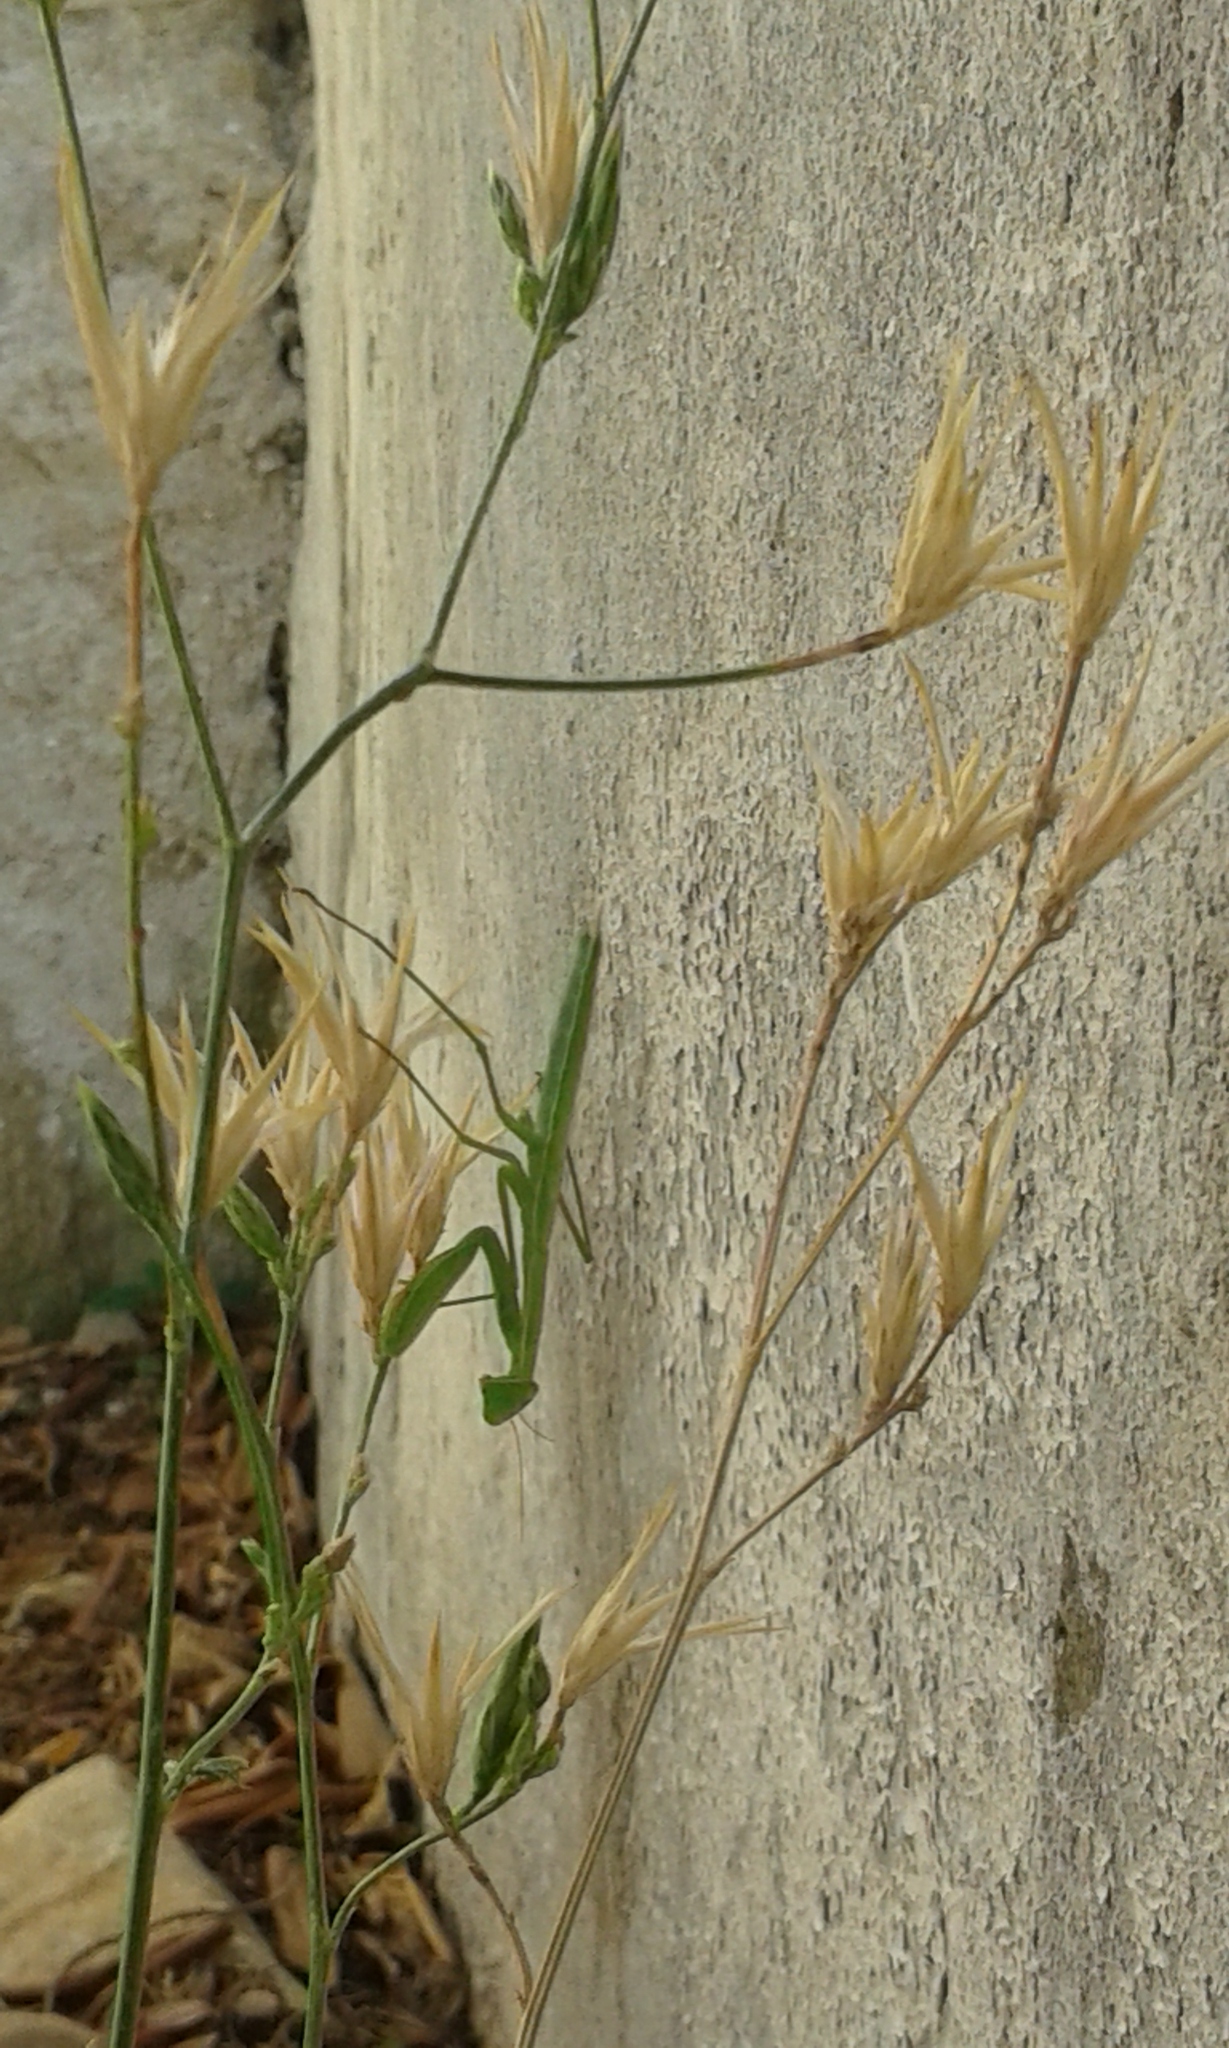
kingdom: Animalia
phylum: Arthropoda
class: Insecta
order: Mantodea
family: Mantidae
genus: Mantis
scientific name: Mantis religiosa
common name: Praying mantis
